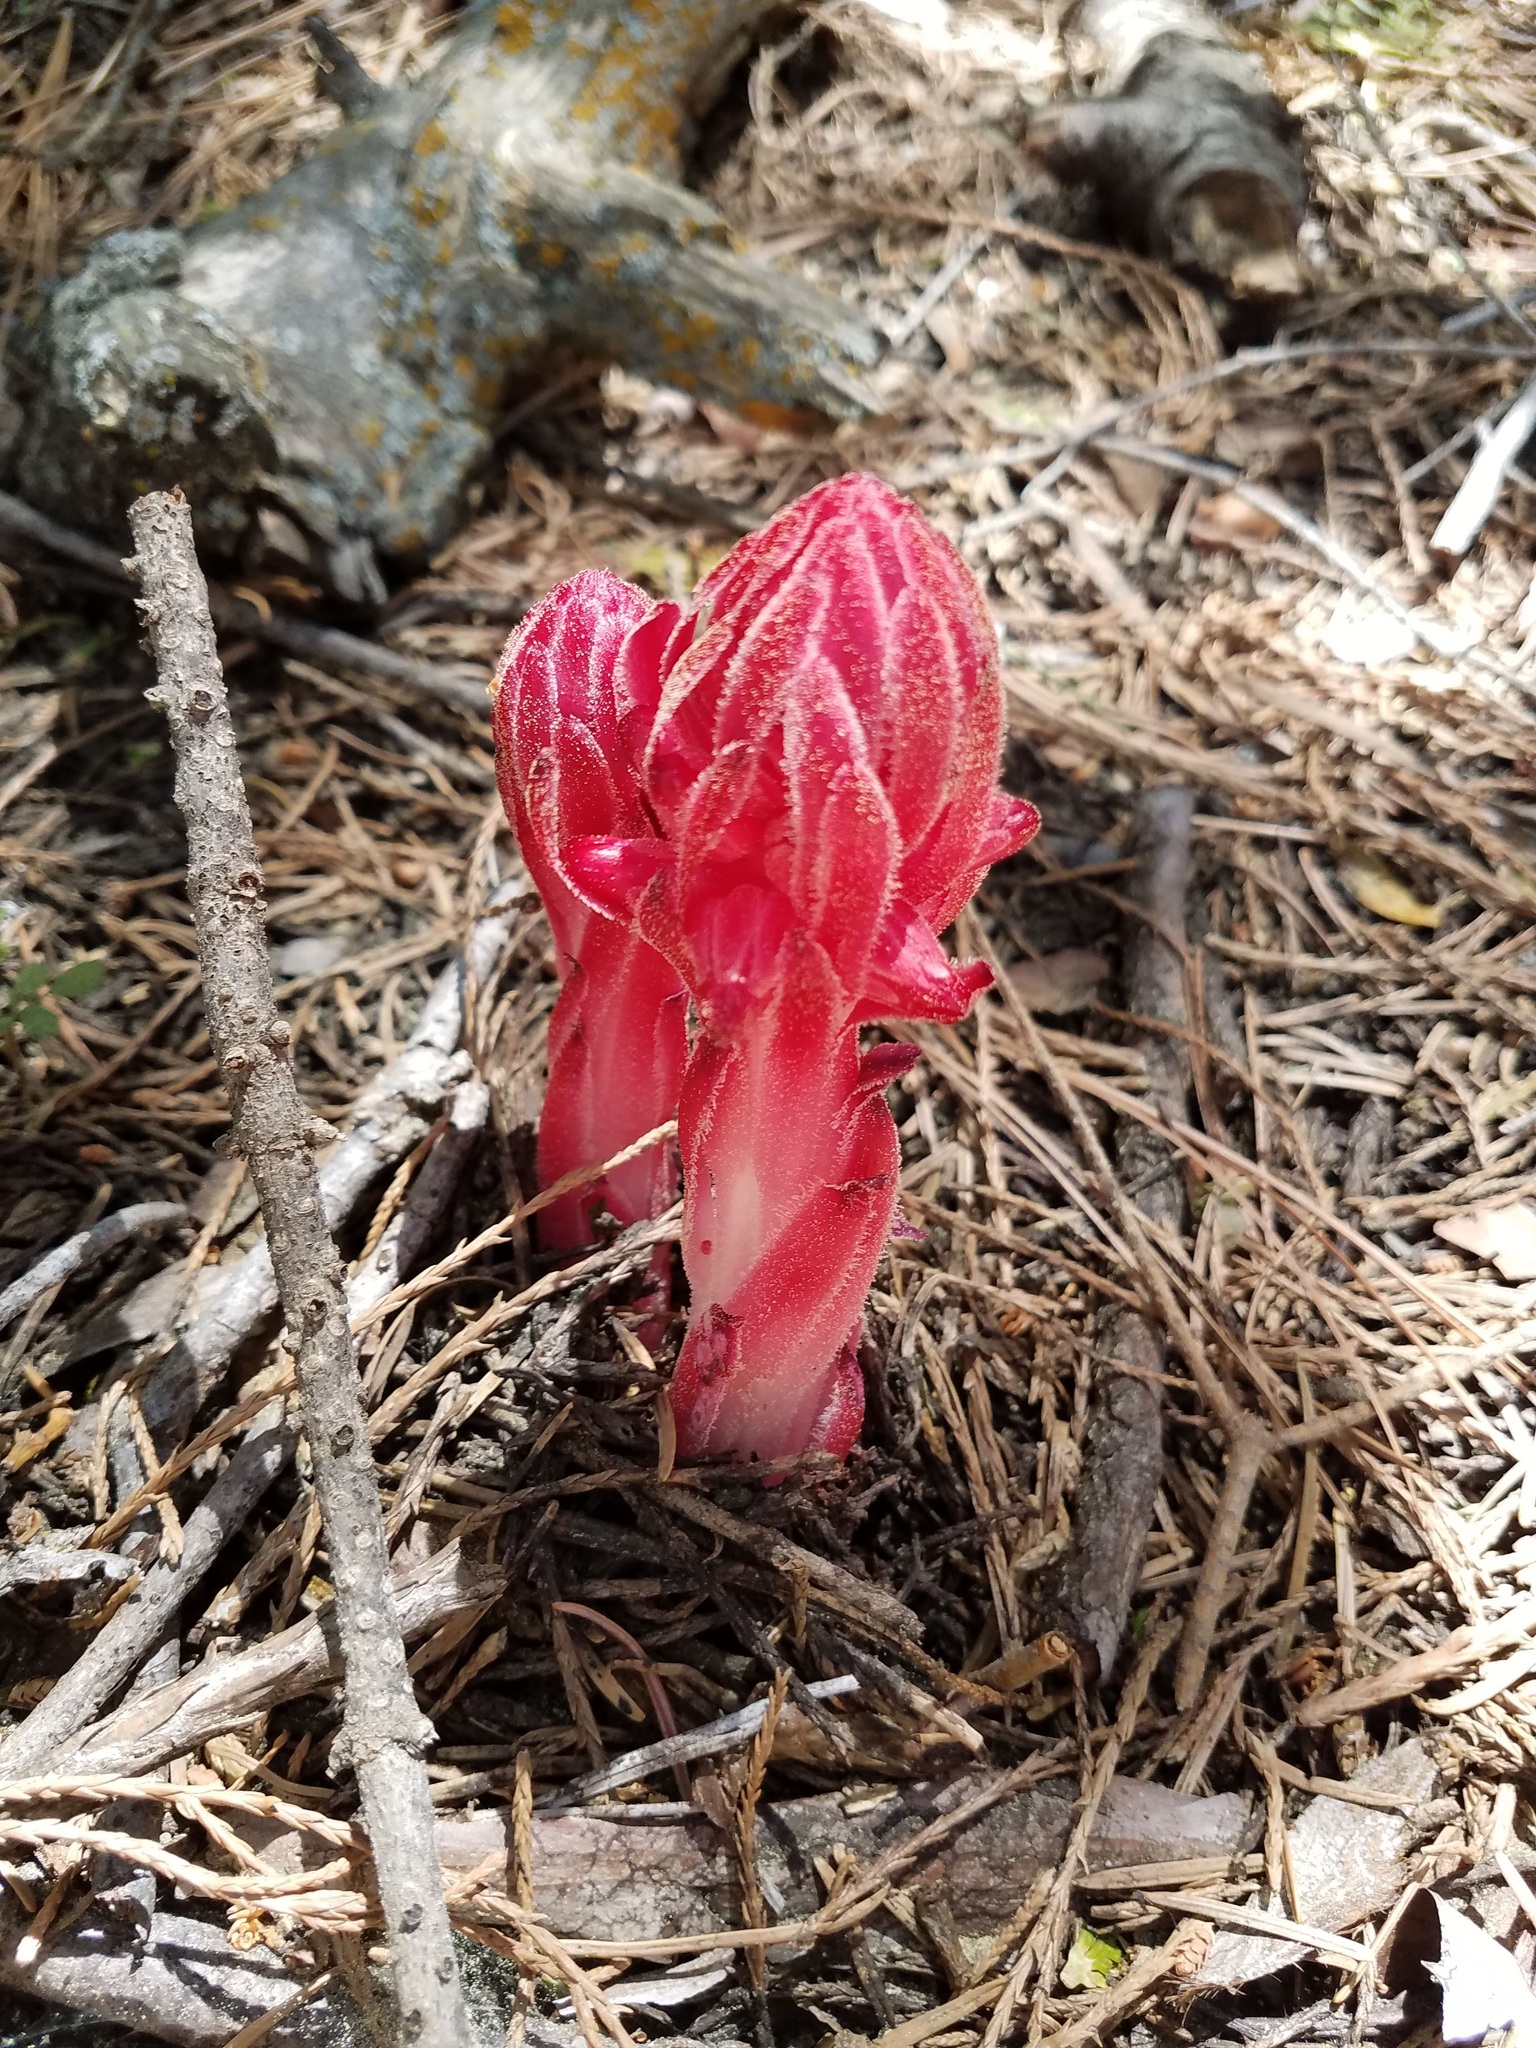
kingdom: Plantae
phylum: Tracheophyta
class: Magnoliopsida
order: Ericales
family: Ericaceae
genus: Sarcodes
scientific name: Sarcodes sanguinea
